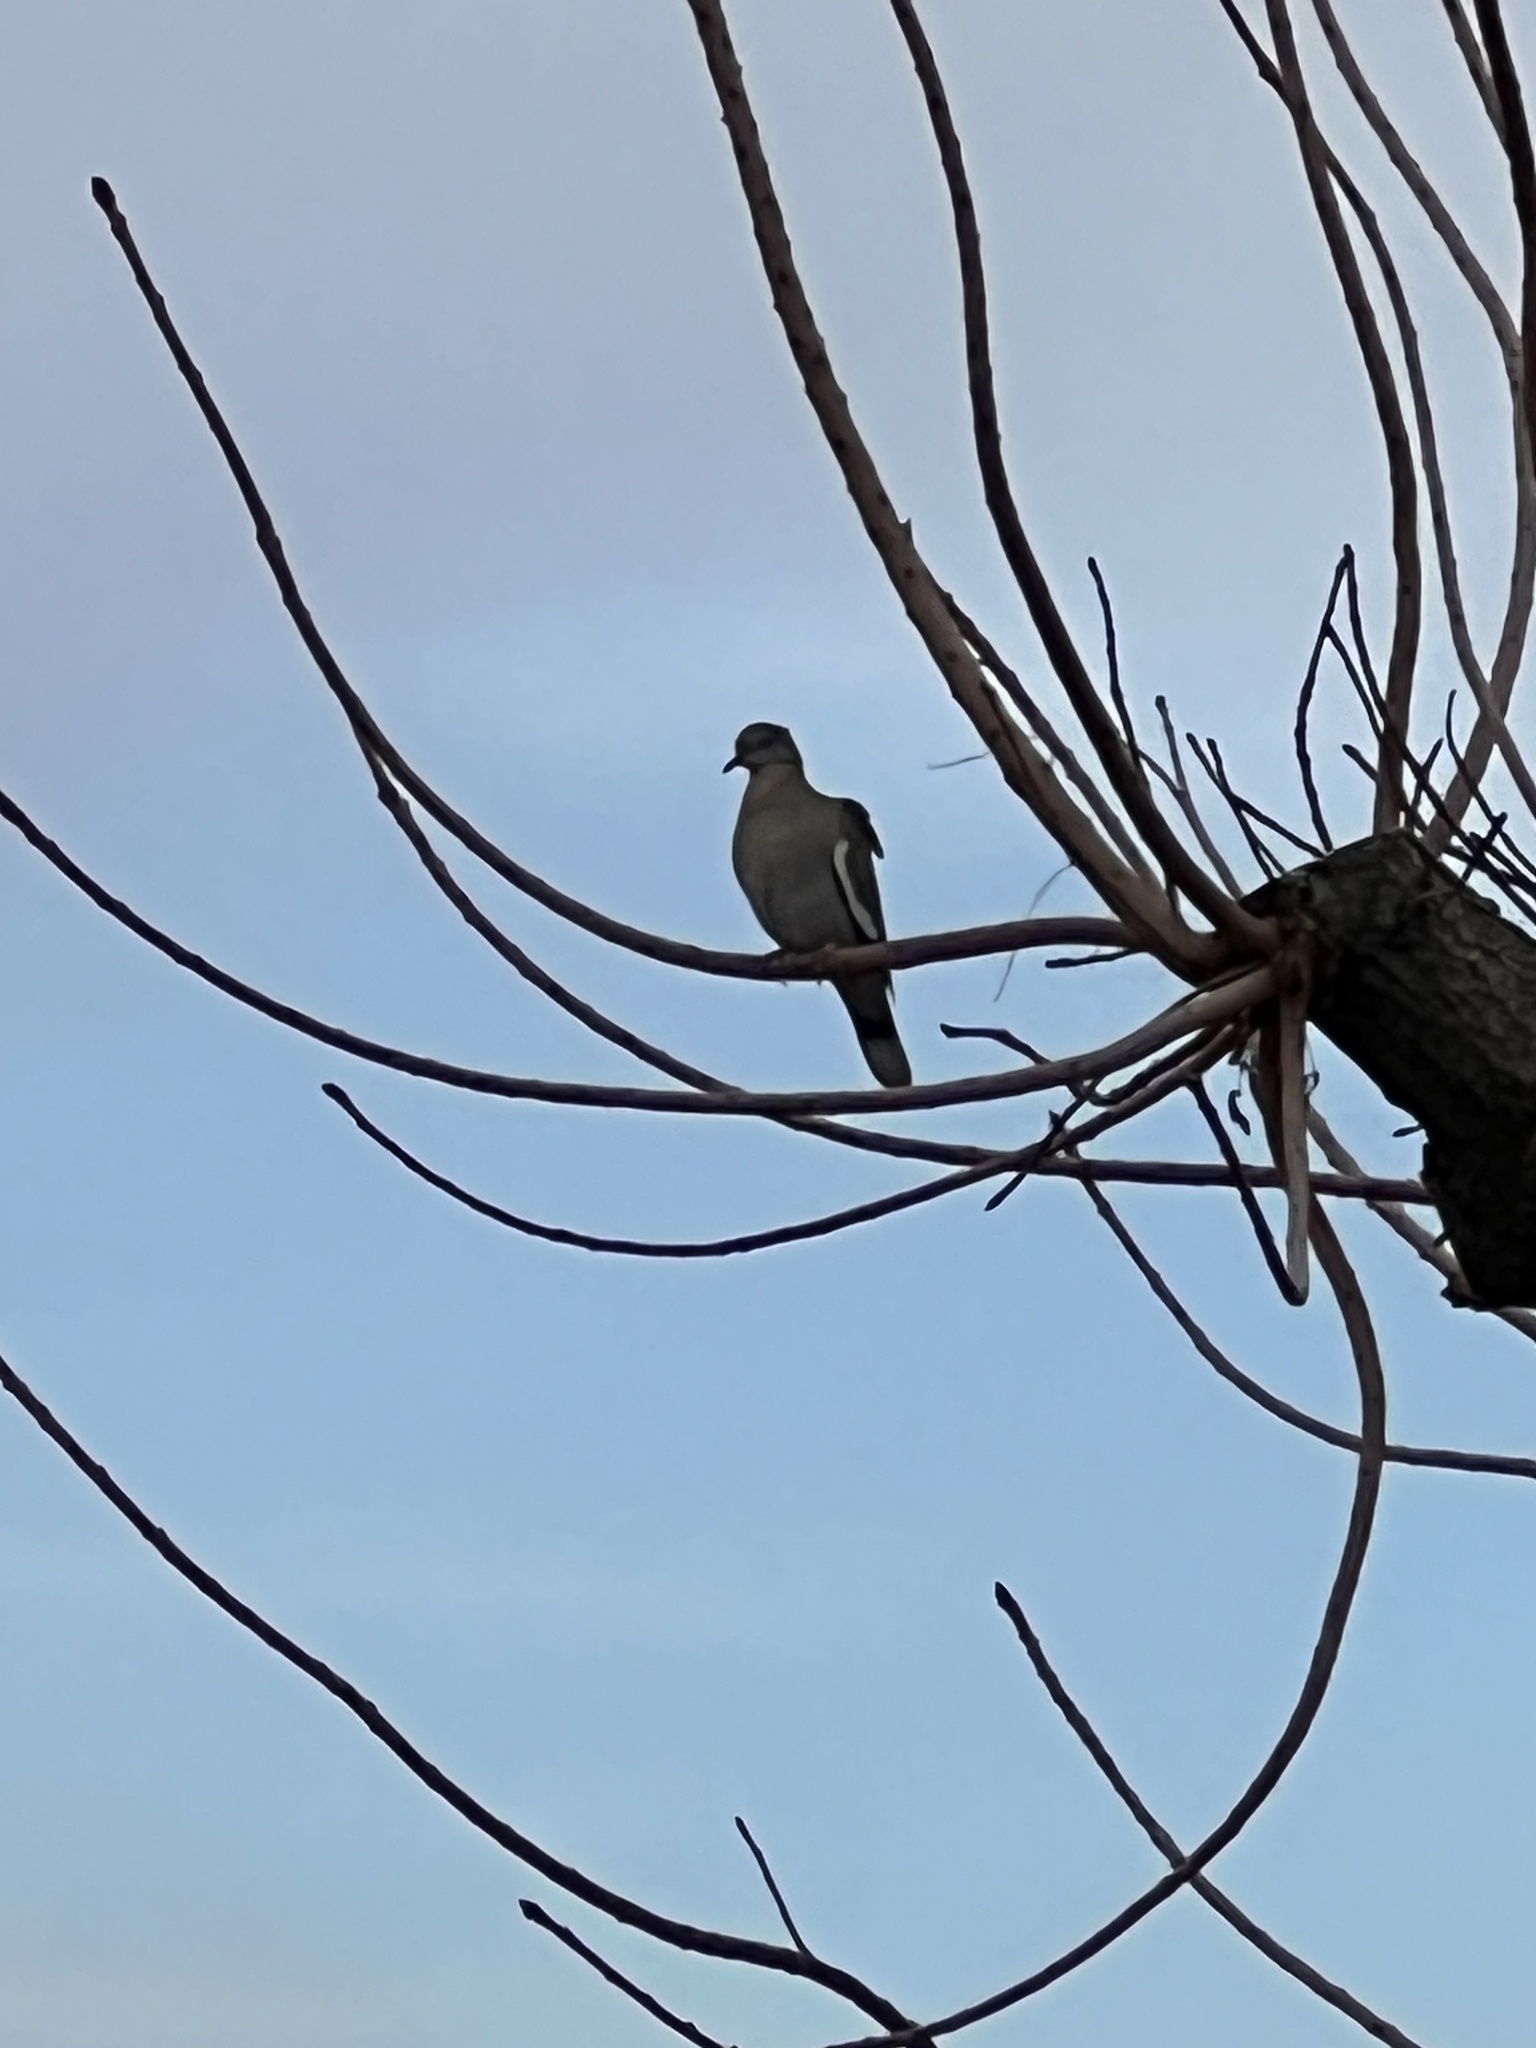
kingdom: Animalia
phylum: Chordata
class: Aves
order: Columbiformes
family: Columbidae
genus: Zenaida
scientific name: Zenaida asiatica
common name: White-winged dove
